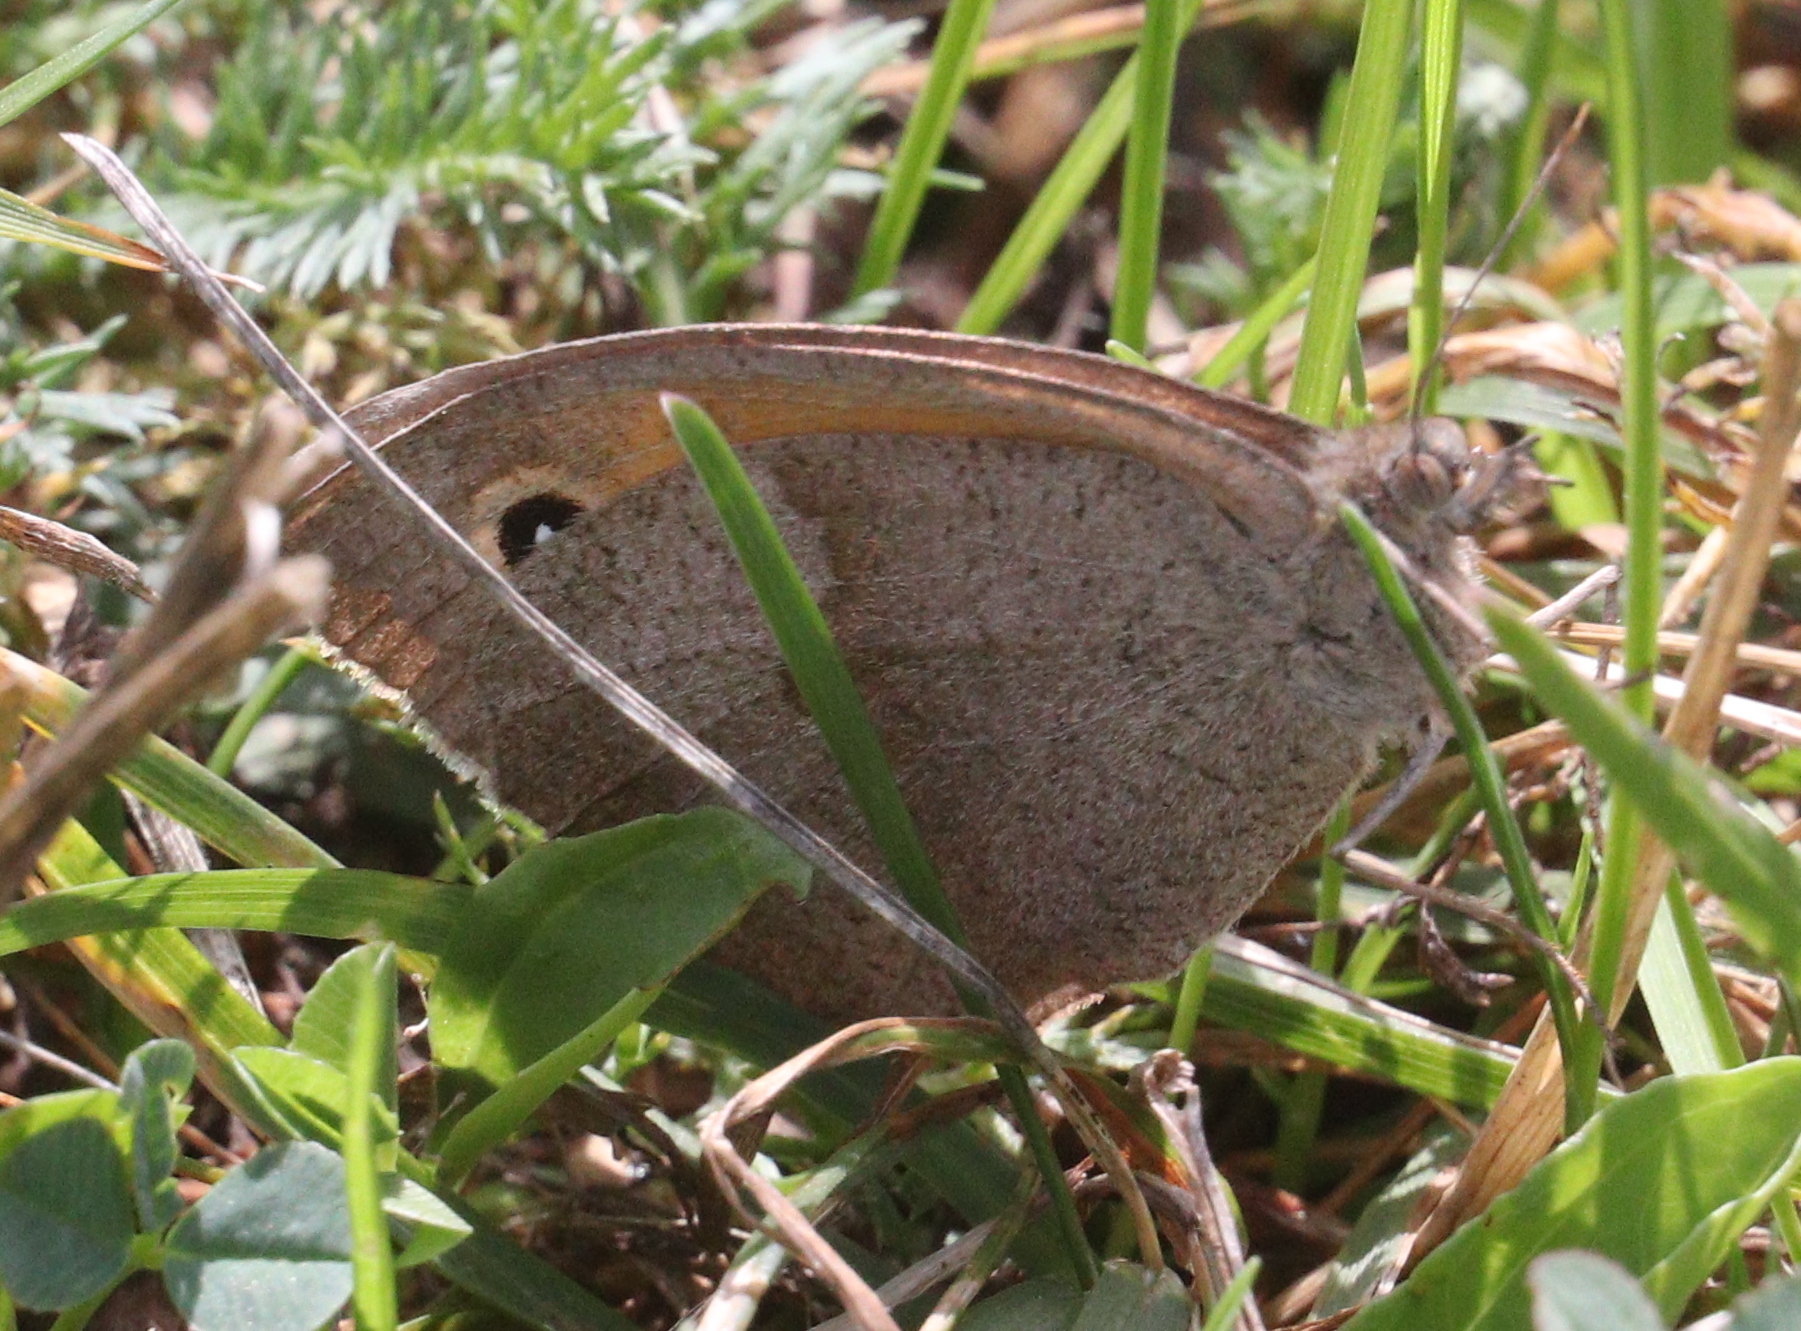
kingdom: Animalia
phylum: Arthropoda
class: Insecta
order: Lepidoptera
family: Nymphalidae
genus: Maniola
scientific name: Maniola jurtina
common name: Meadow brown
